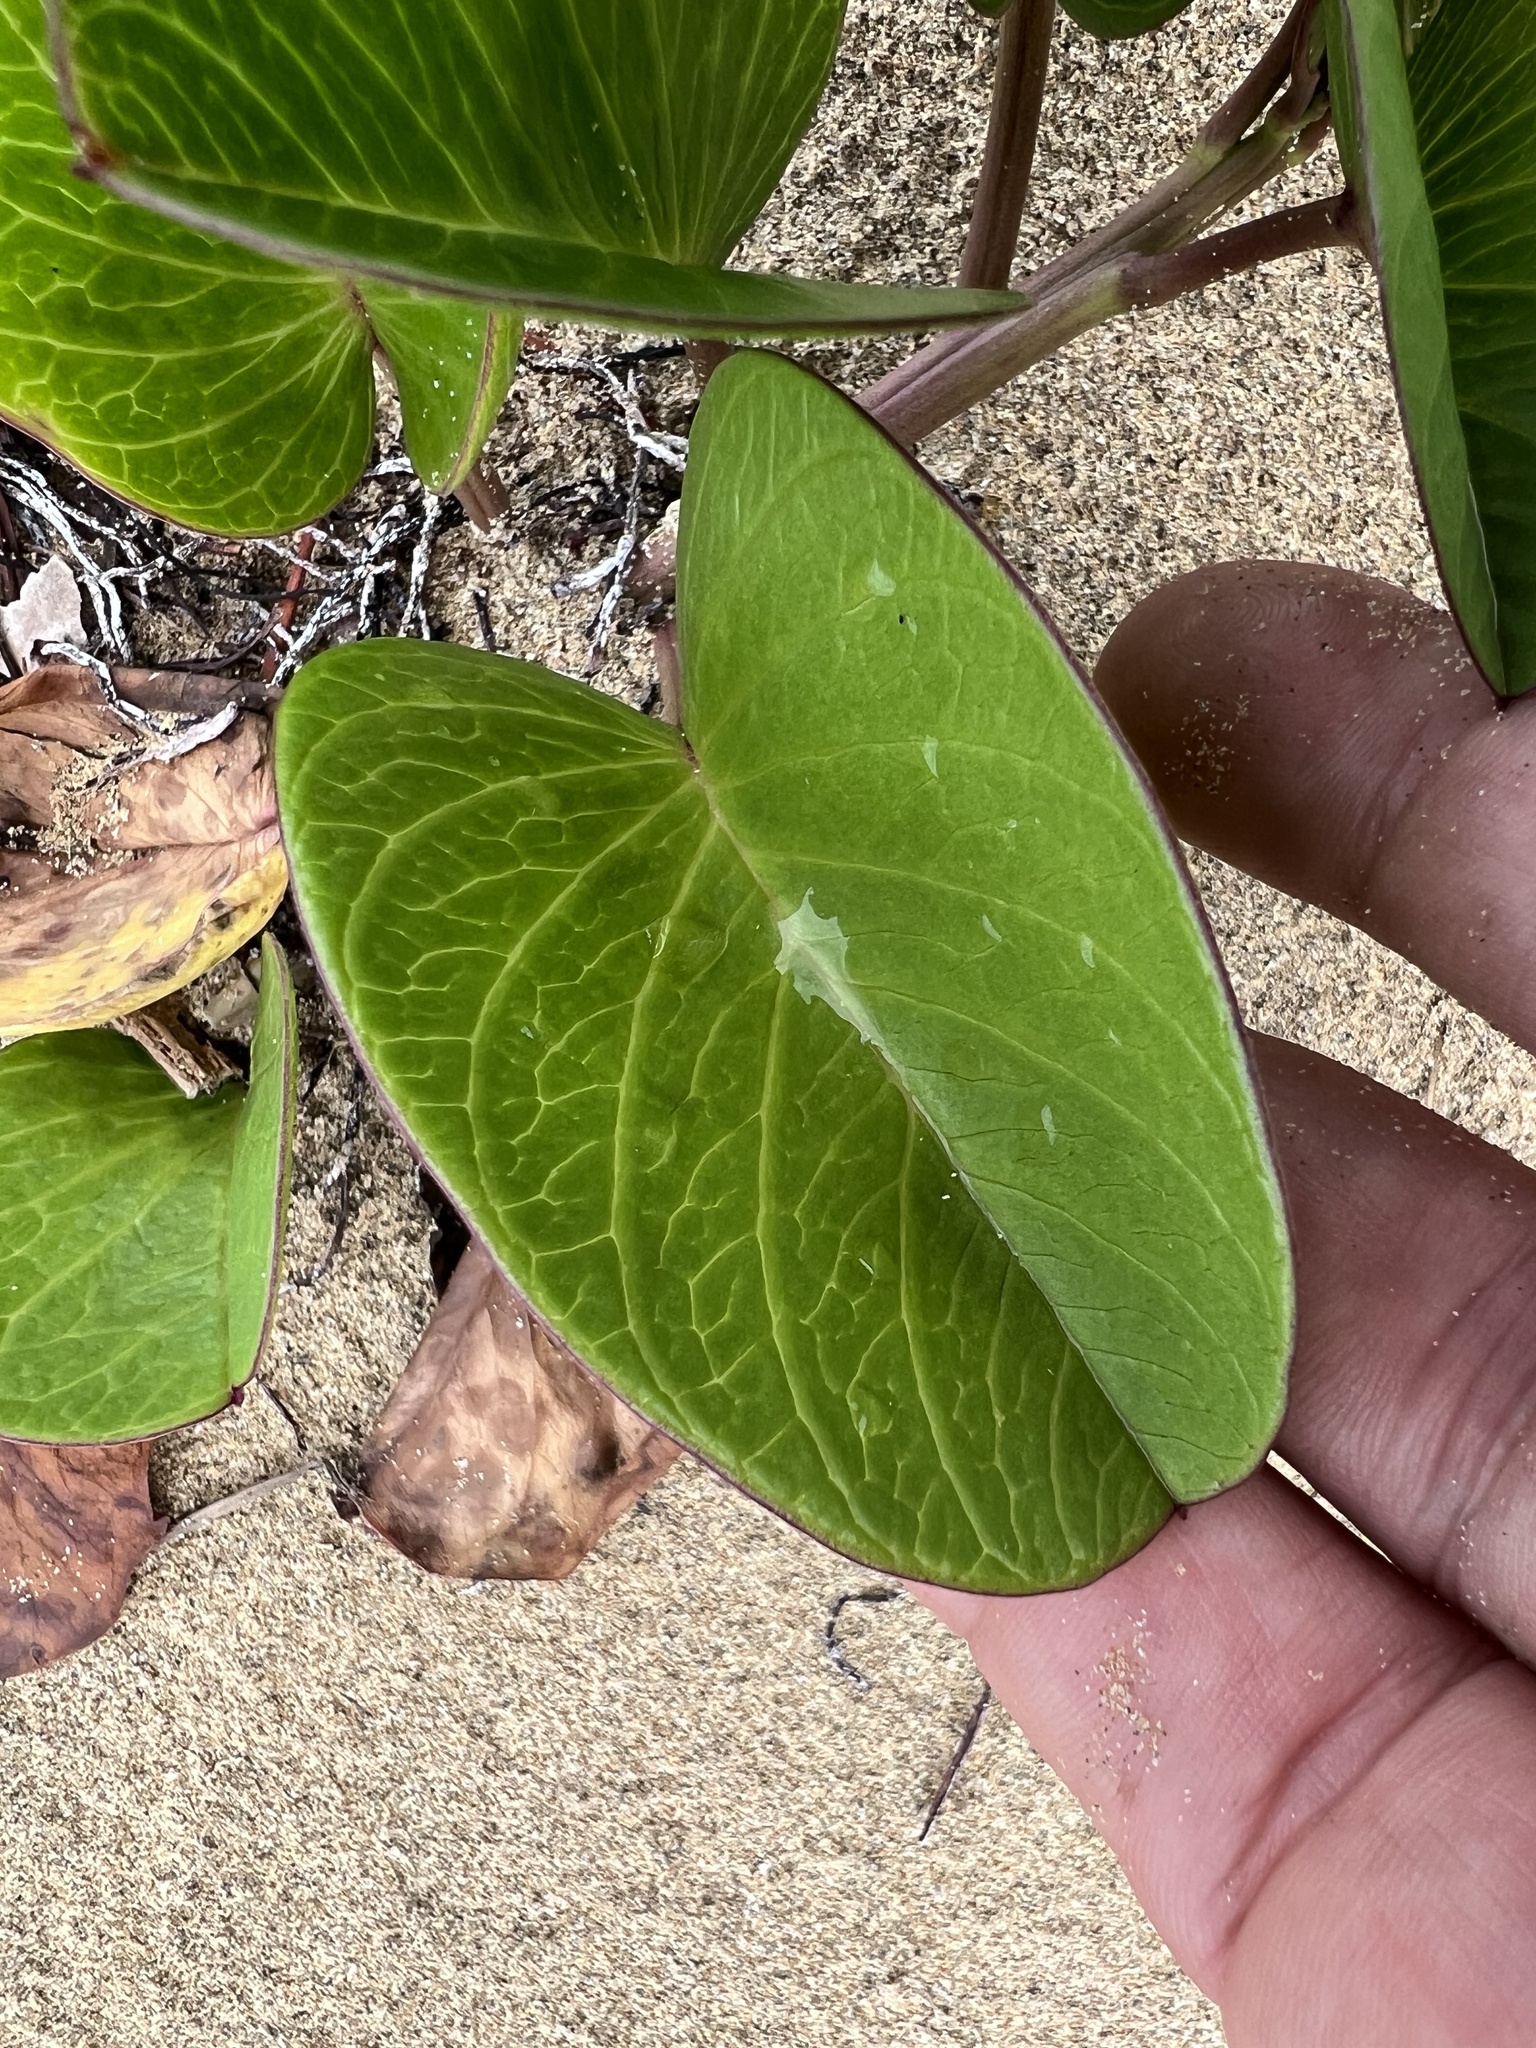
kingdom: Plantae
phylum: Tracheophyta
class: Magnoliopsida
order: Solanales
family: Convolvulaceae
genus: Ipomoea
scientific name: Ipomoea pes-caprae
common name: Beach morning glory
